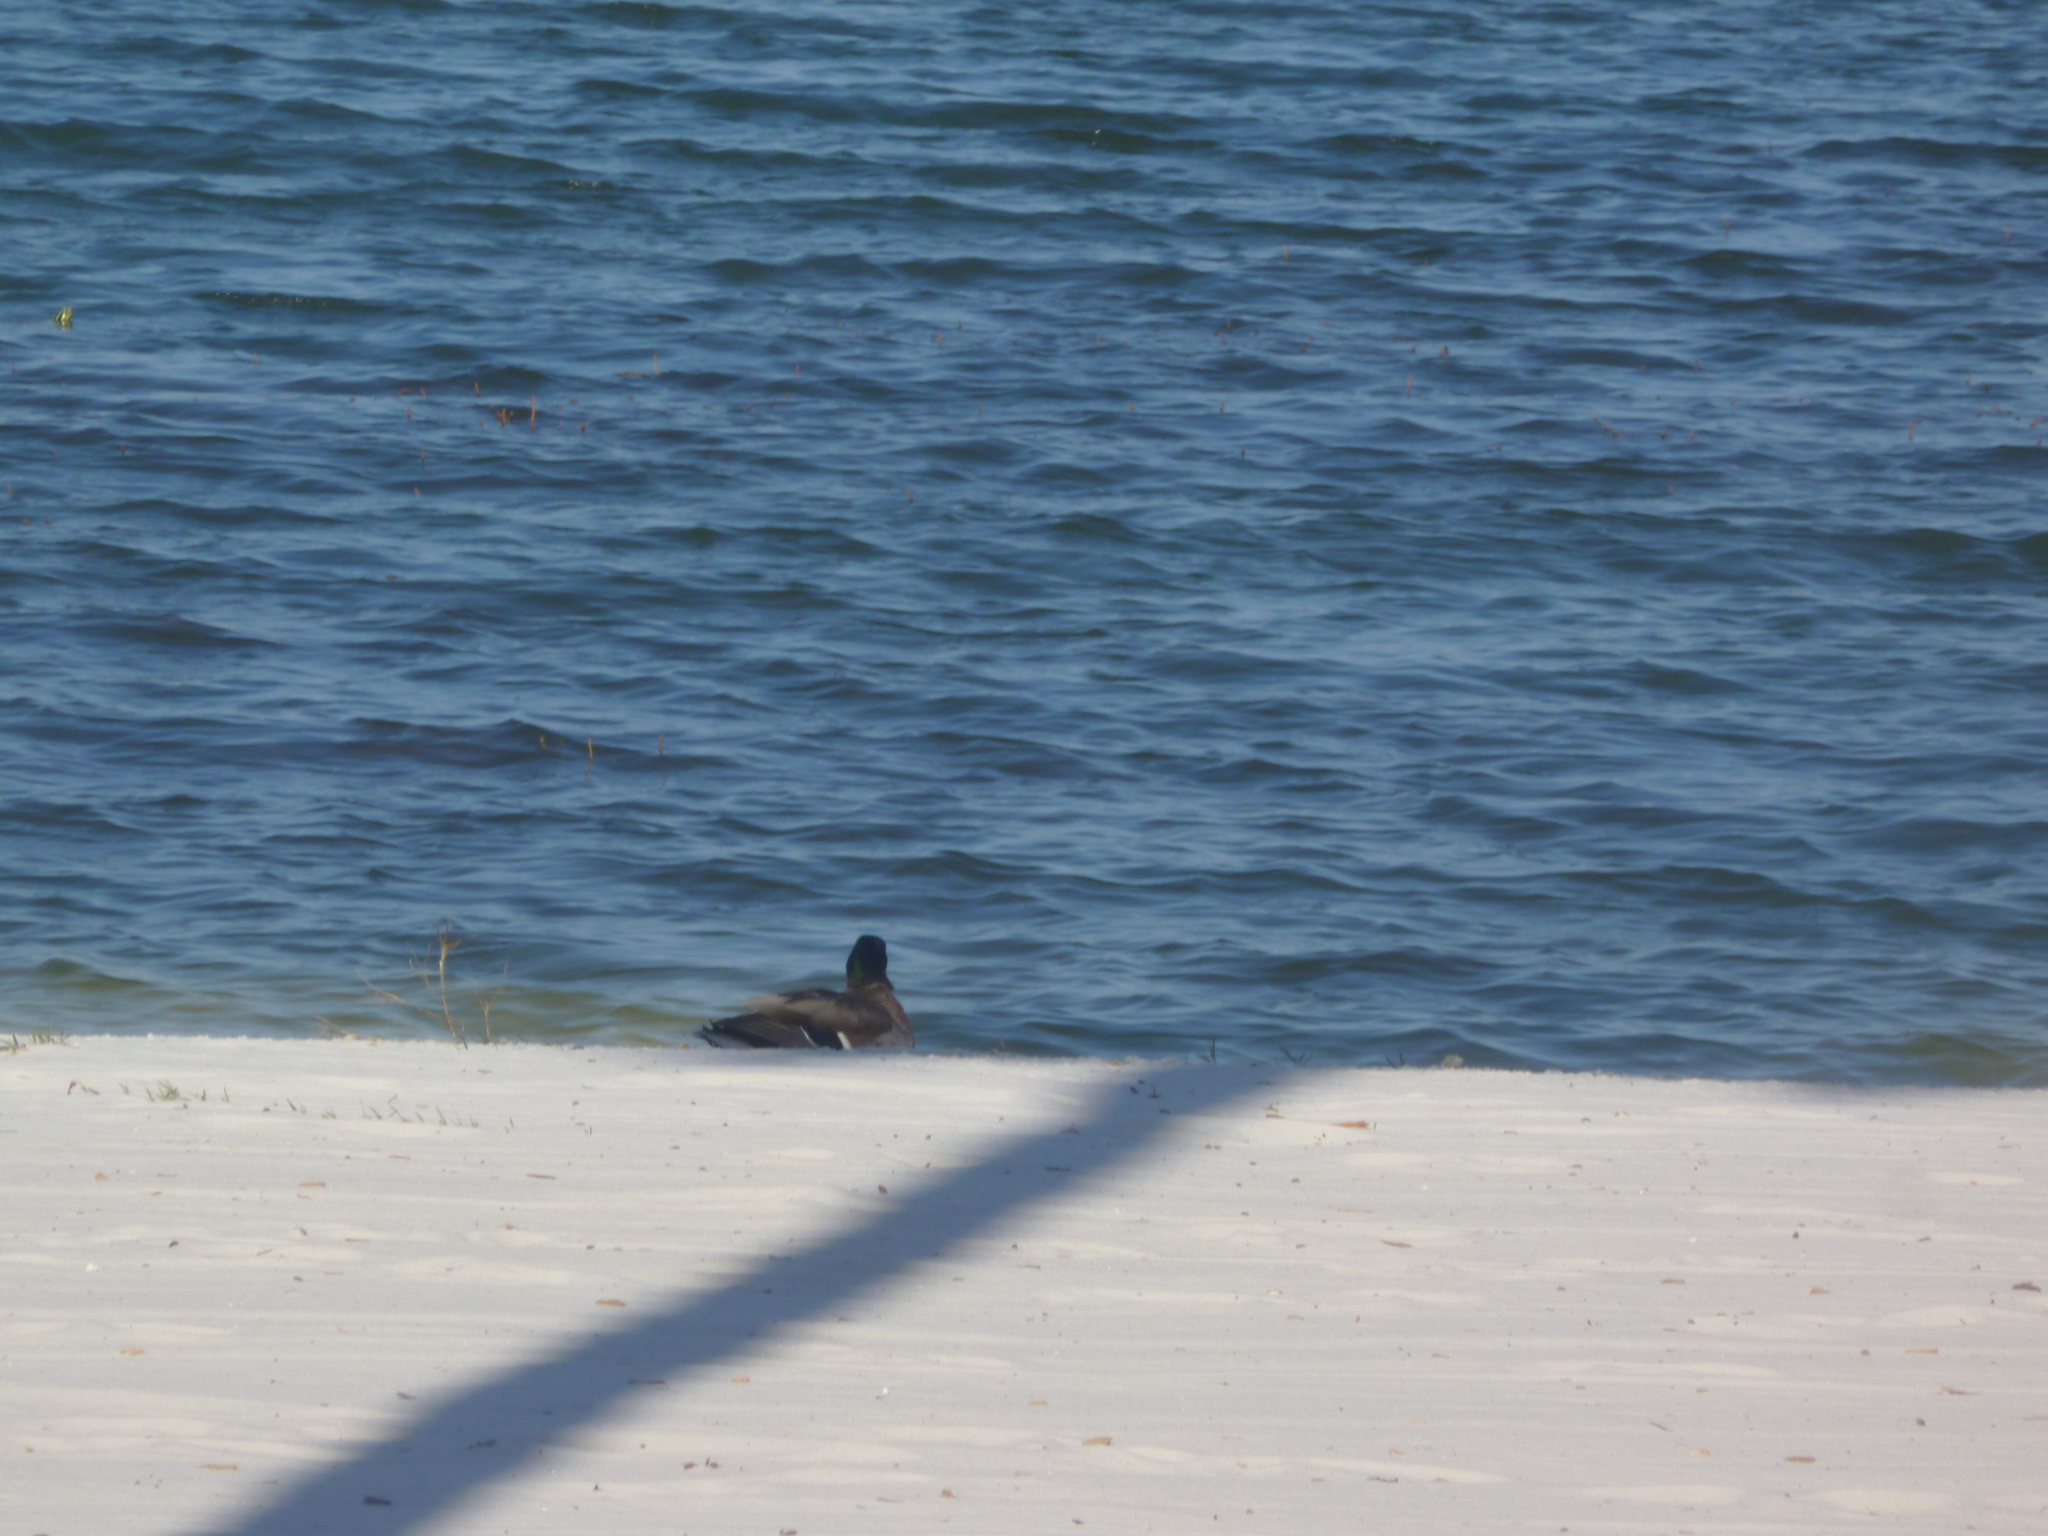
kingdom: Animalia
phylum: Chordata
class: Aves
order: Anseriformes
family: Anatidae
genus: Anas
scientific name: Anas platyrhynchos
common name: Mallard
